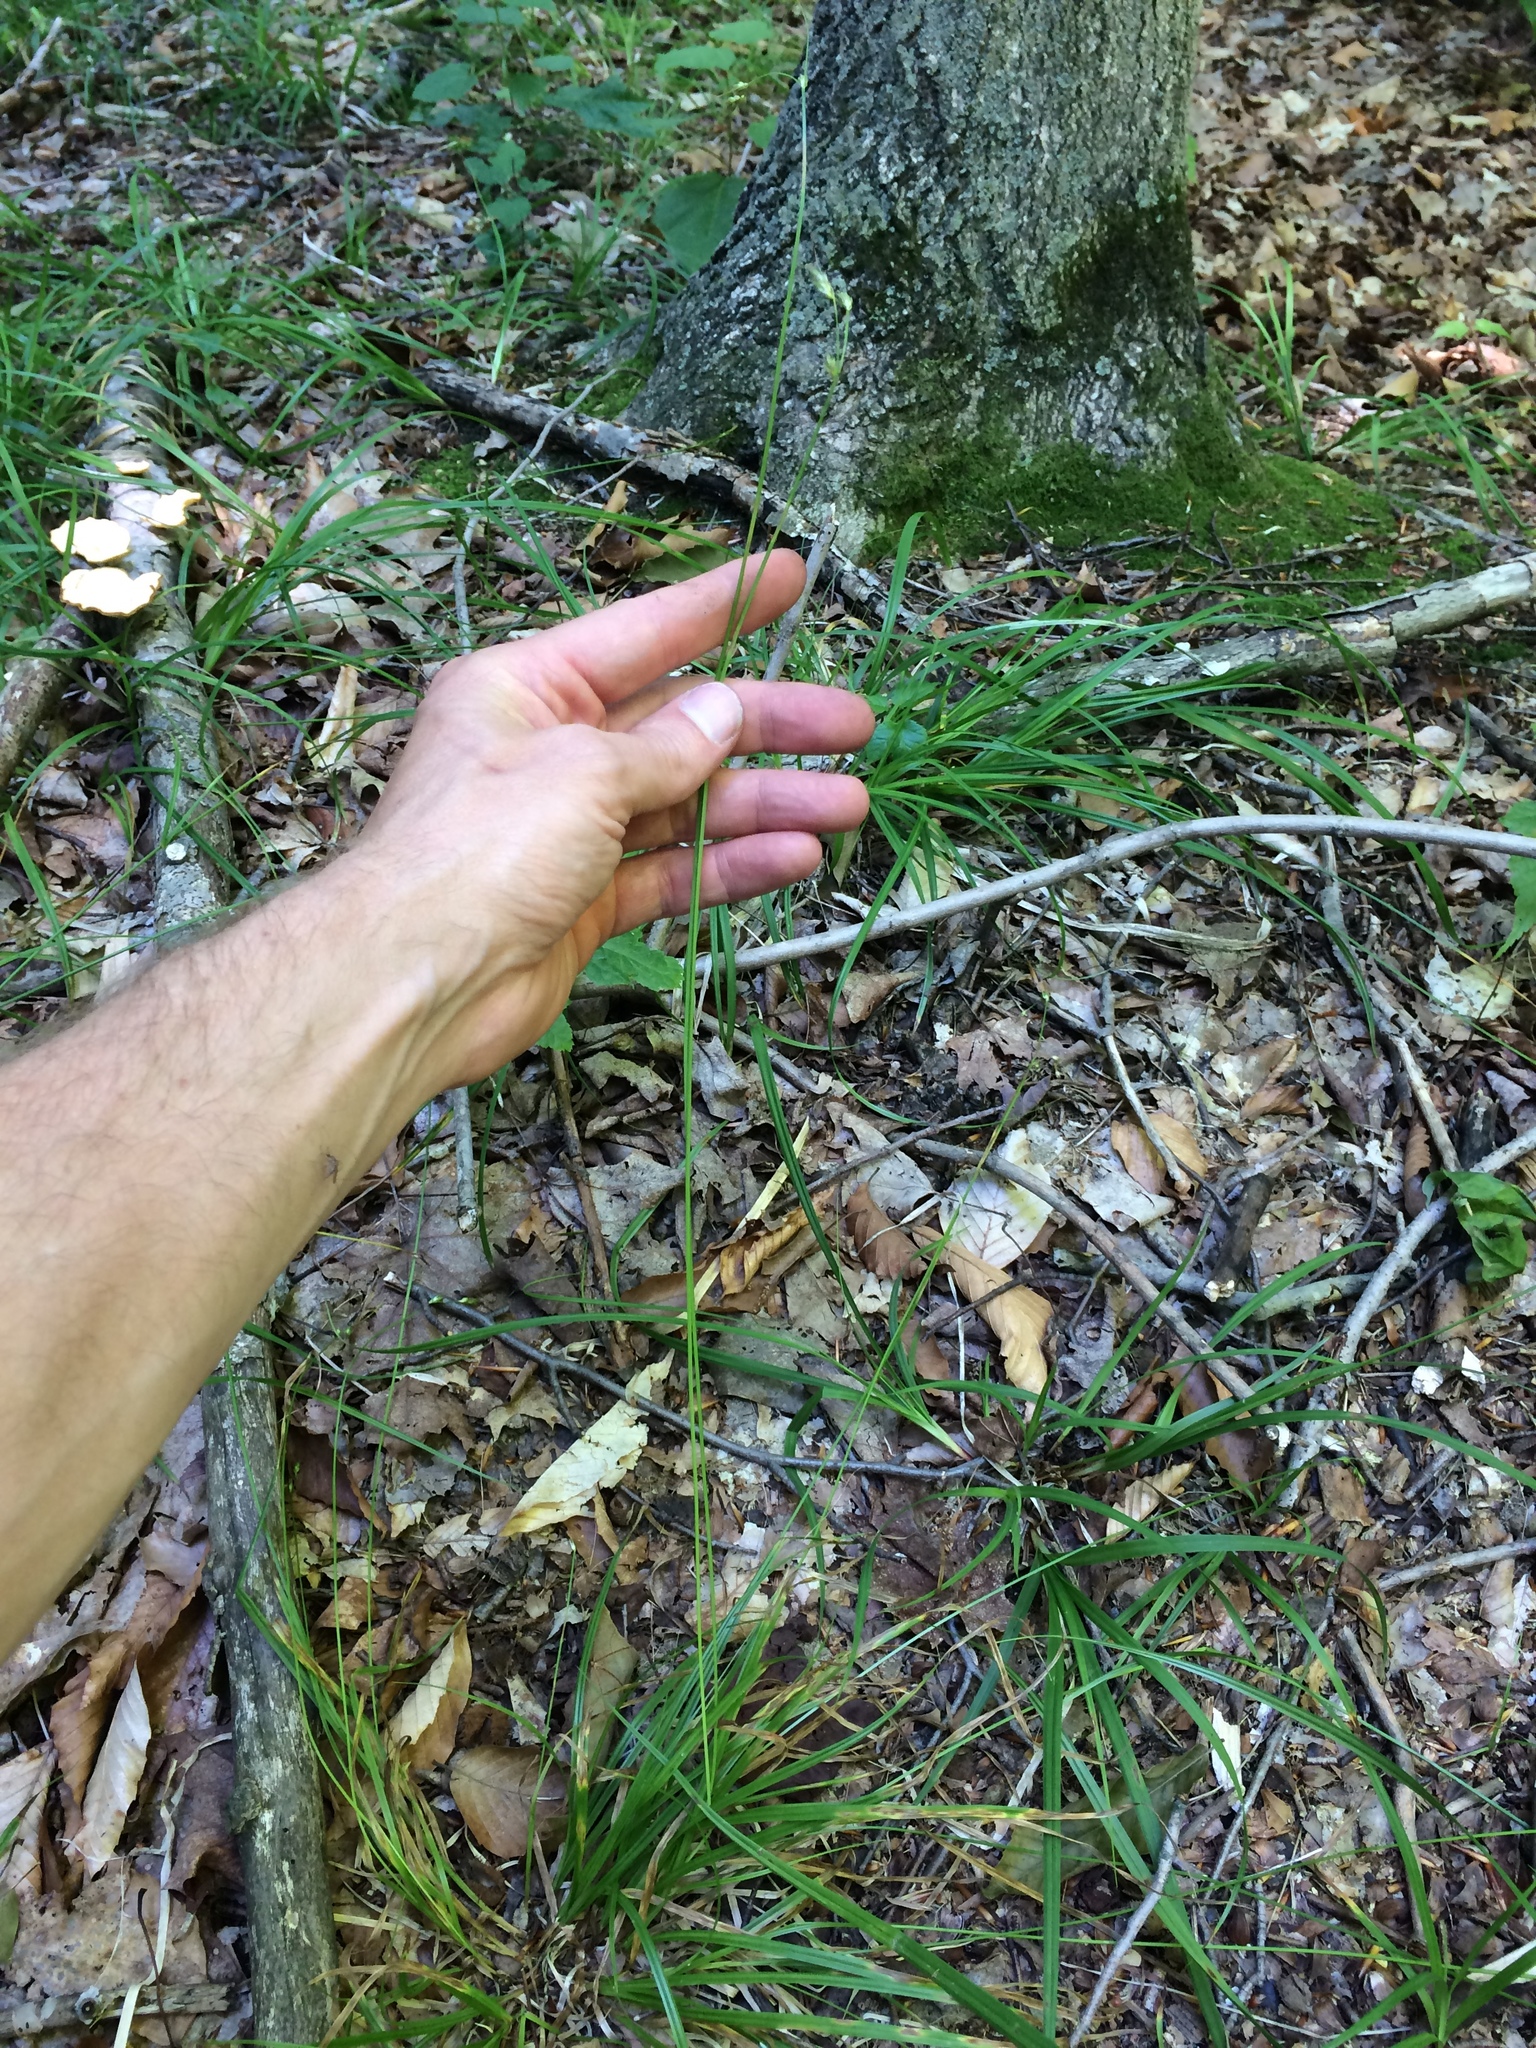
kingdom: Plantae
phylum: Tracheophyta
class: Liliopsida
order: Poales
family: Cyperaceae
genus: Carex
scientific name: Carex deweyana
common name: Dewey's sedge
